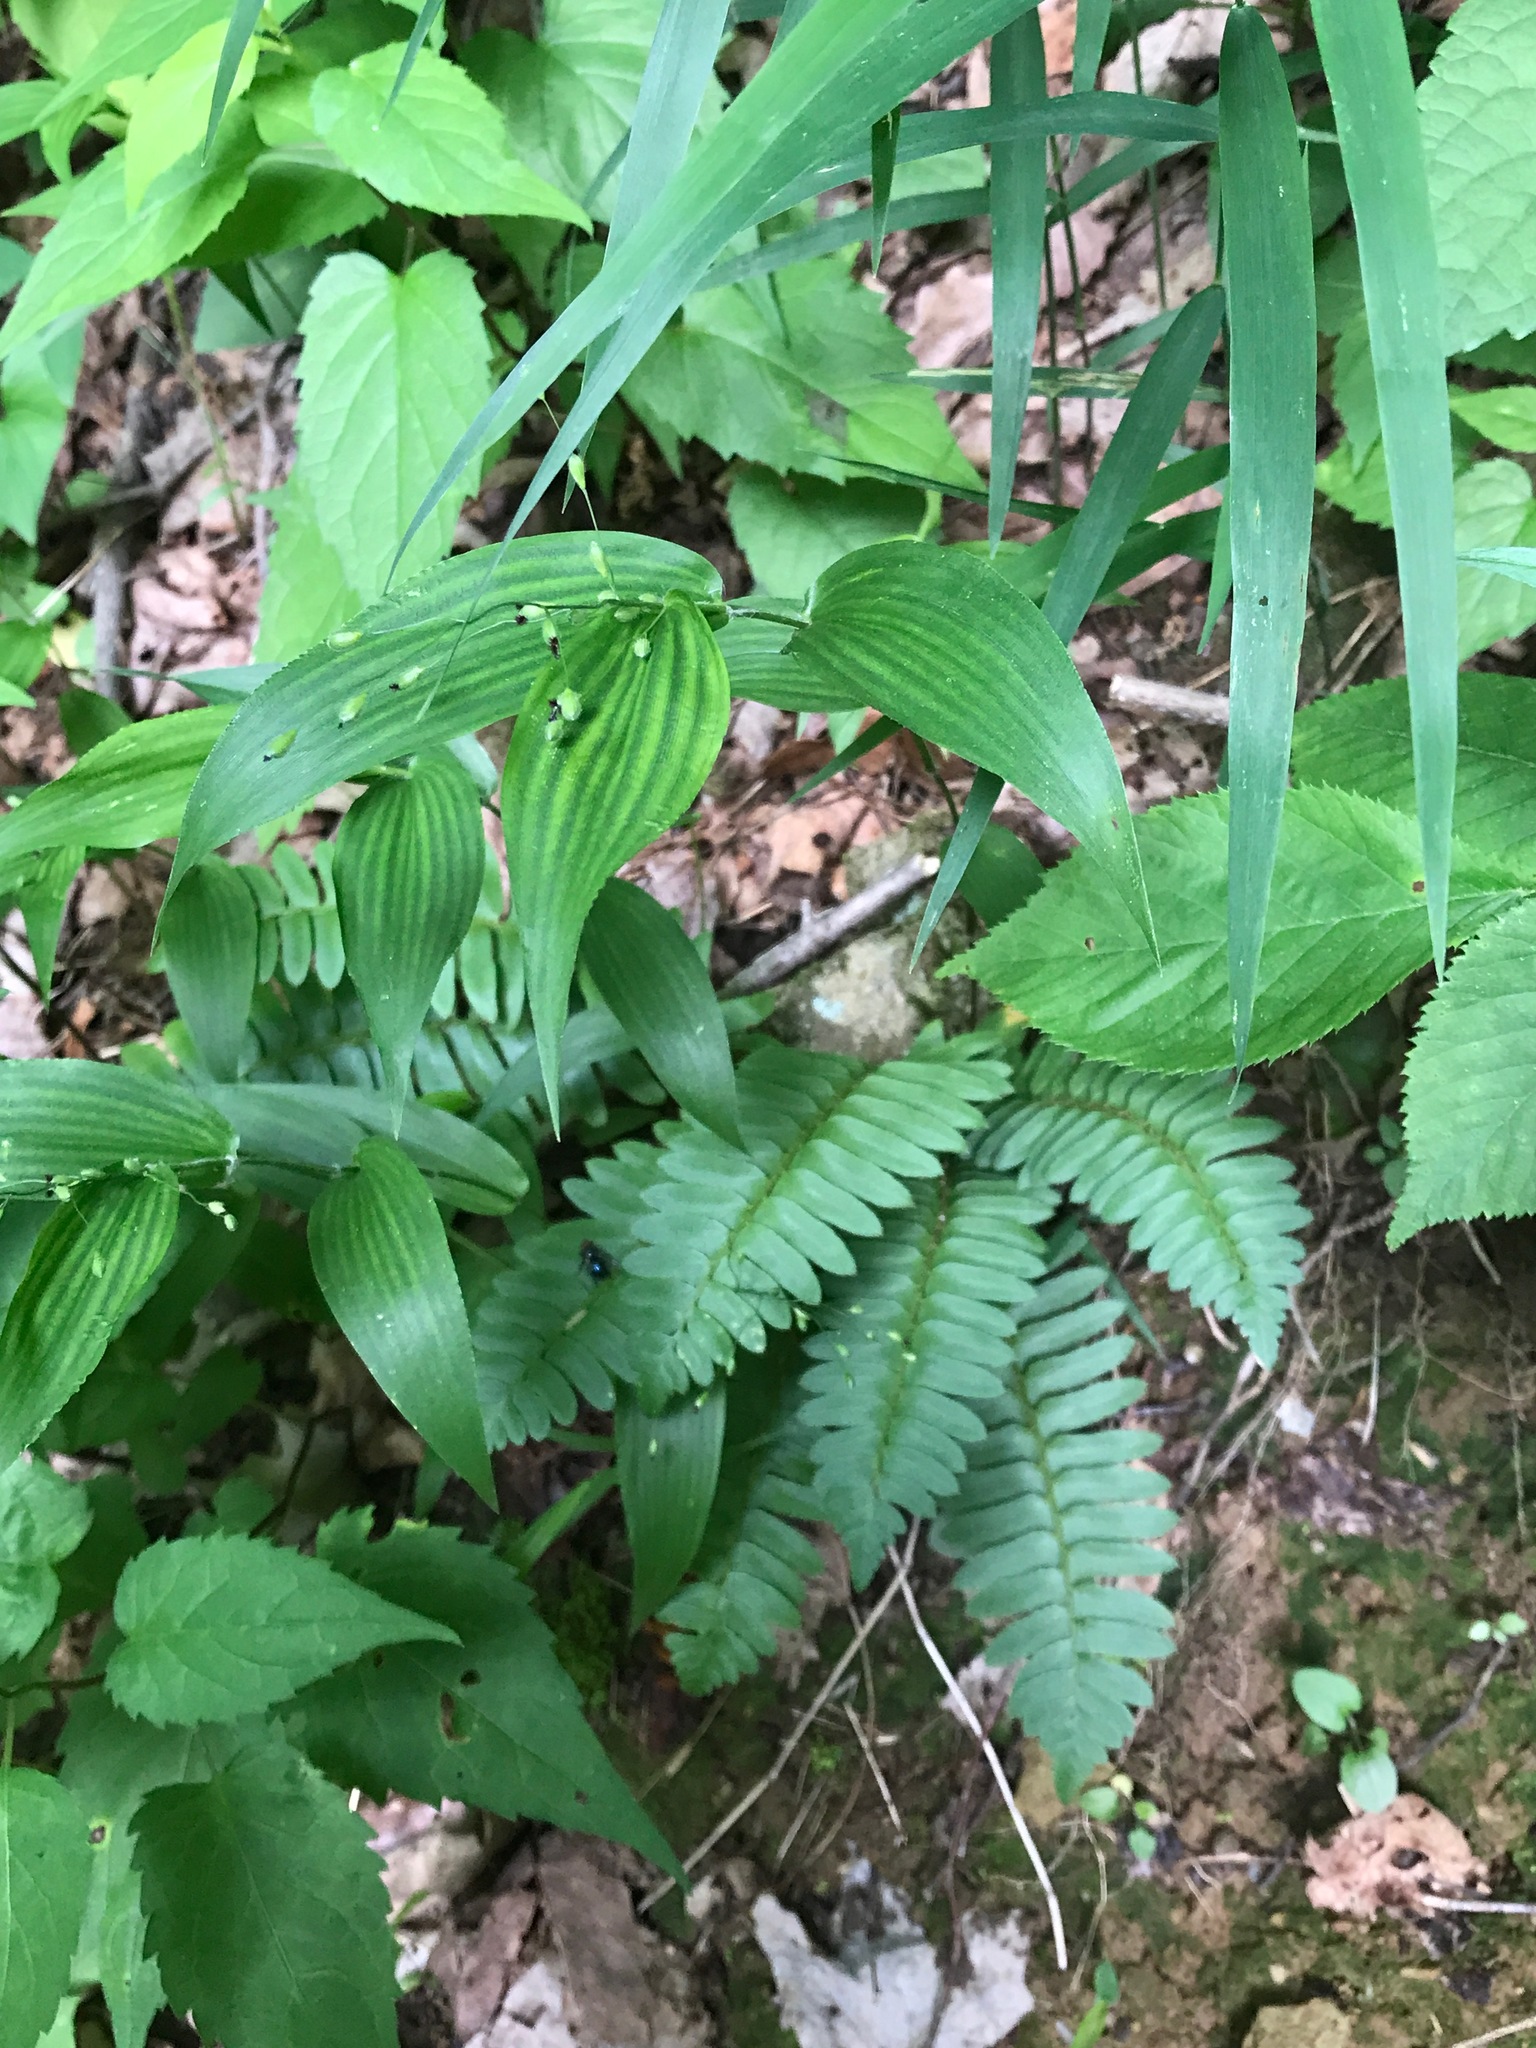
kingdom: Plantae
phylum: Tracheophyta
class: Polypodiopsida
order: Polypodiales
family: Dryopteridaceae
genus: Polystichum
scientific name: Polystichum acrostichoides
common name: Christmas fern
